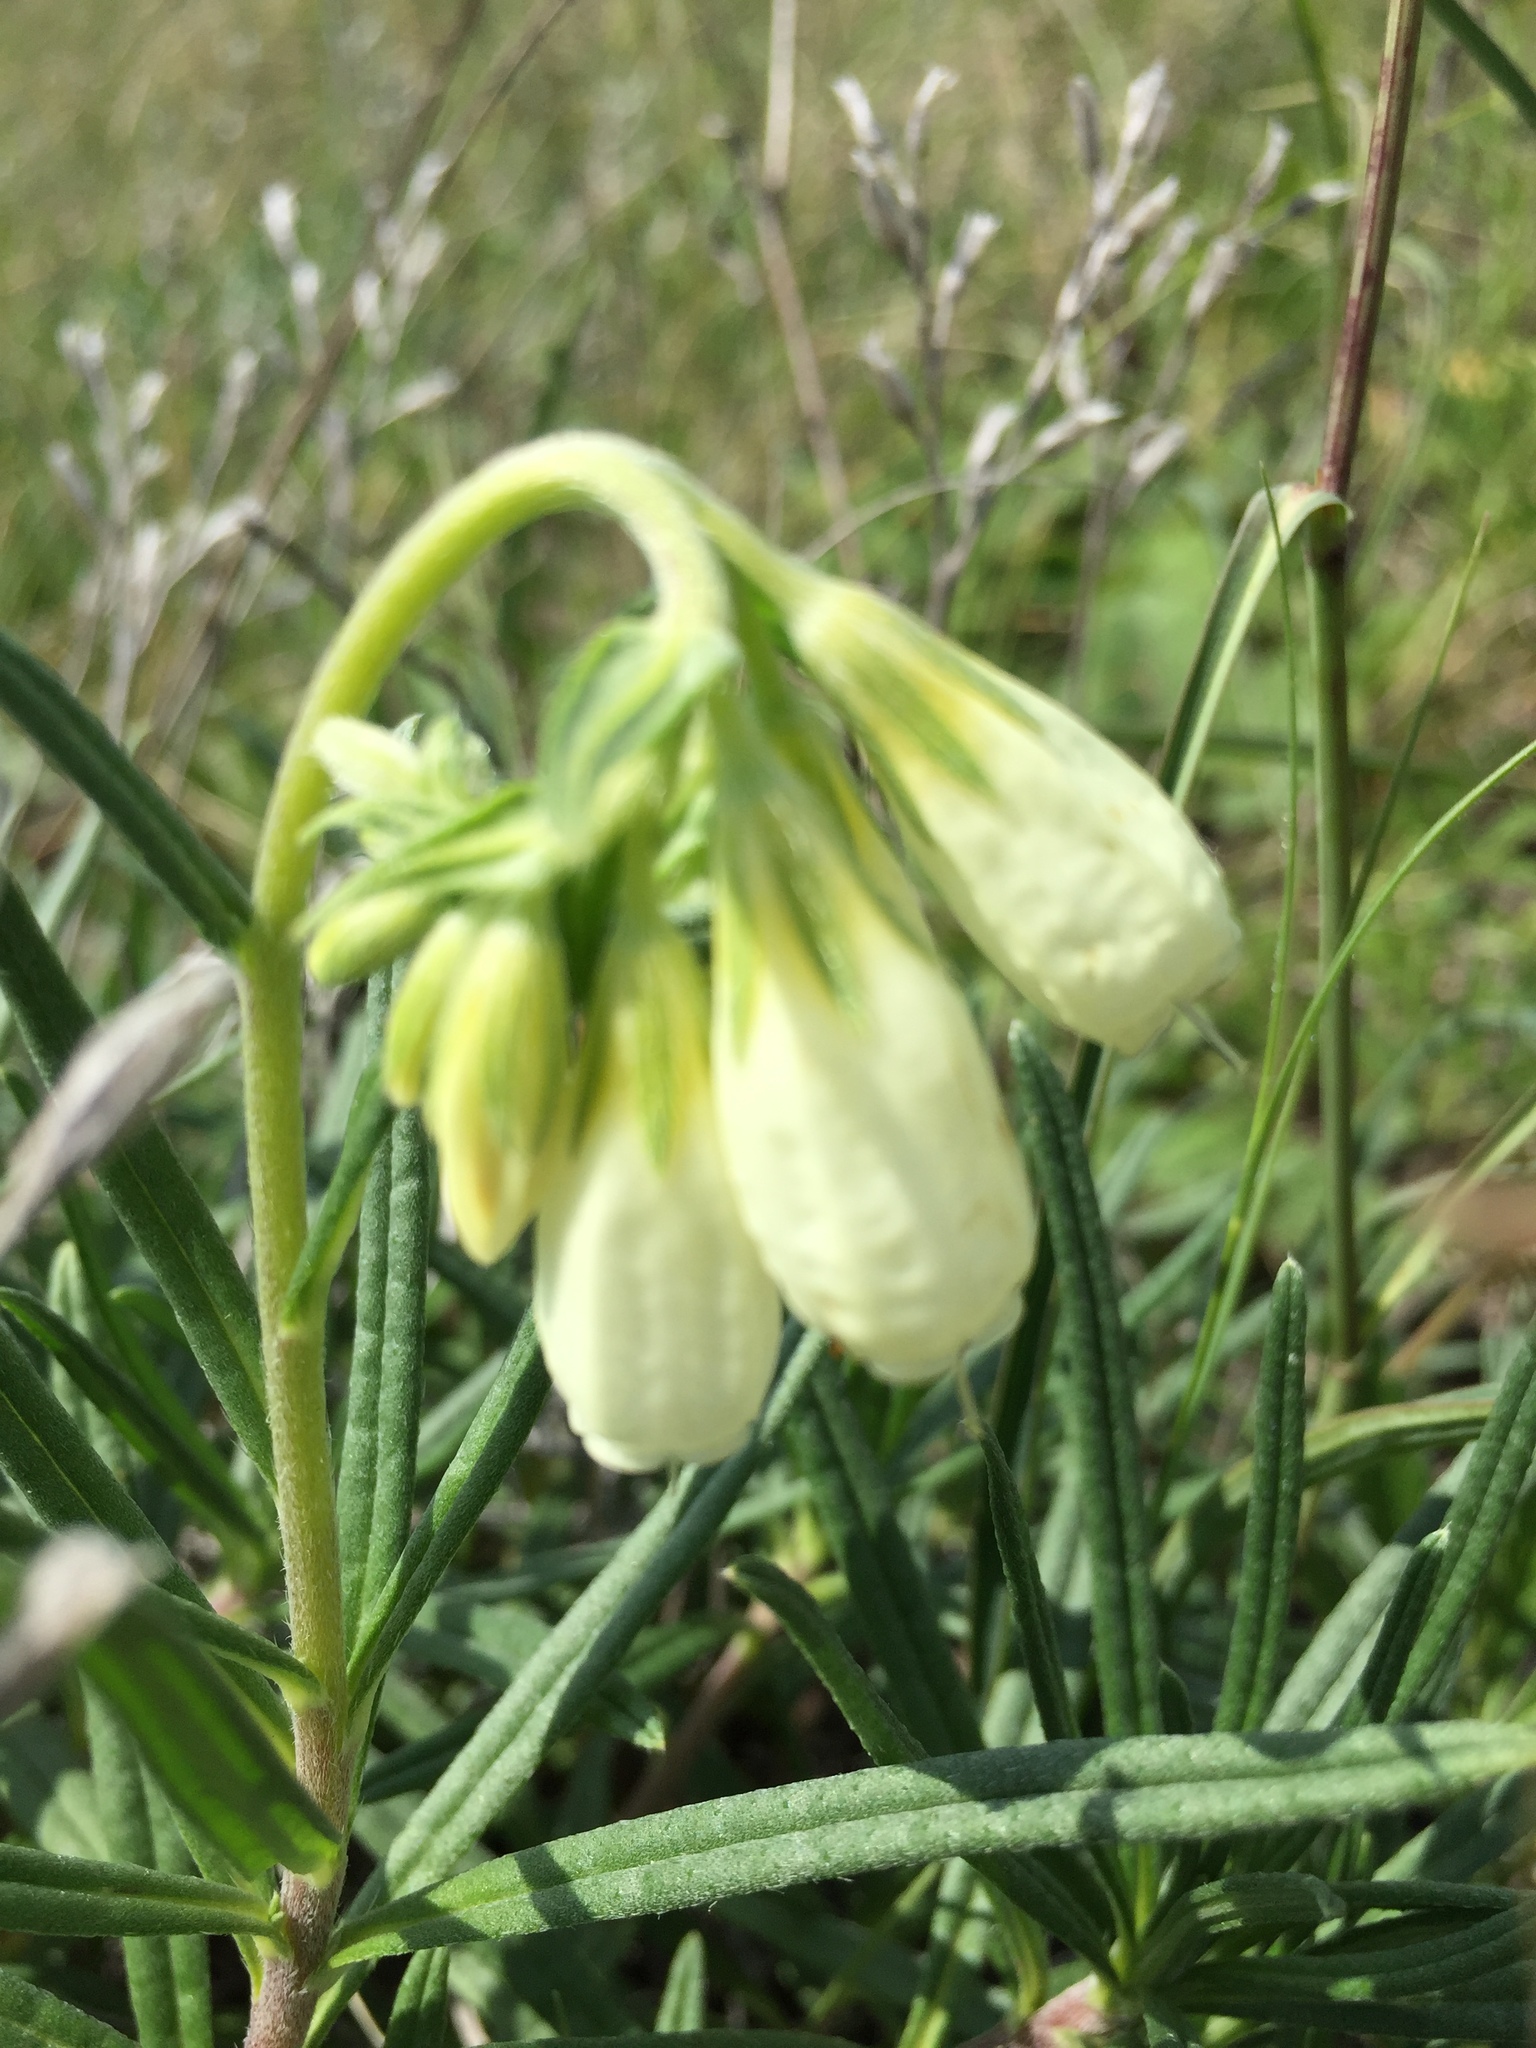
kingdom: Plantae
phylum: Tracheophyta
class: Magnoliopsida
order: Boraginales
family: Boraginaceae
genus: Onosma
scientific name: Onosma simplicissima
